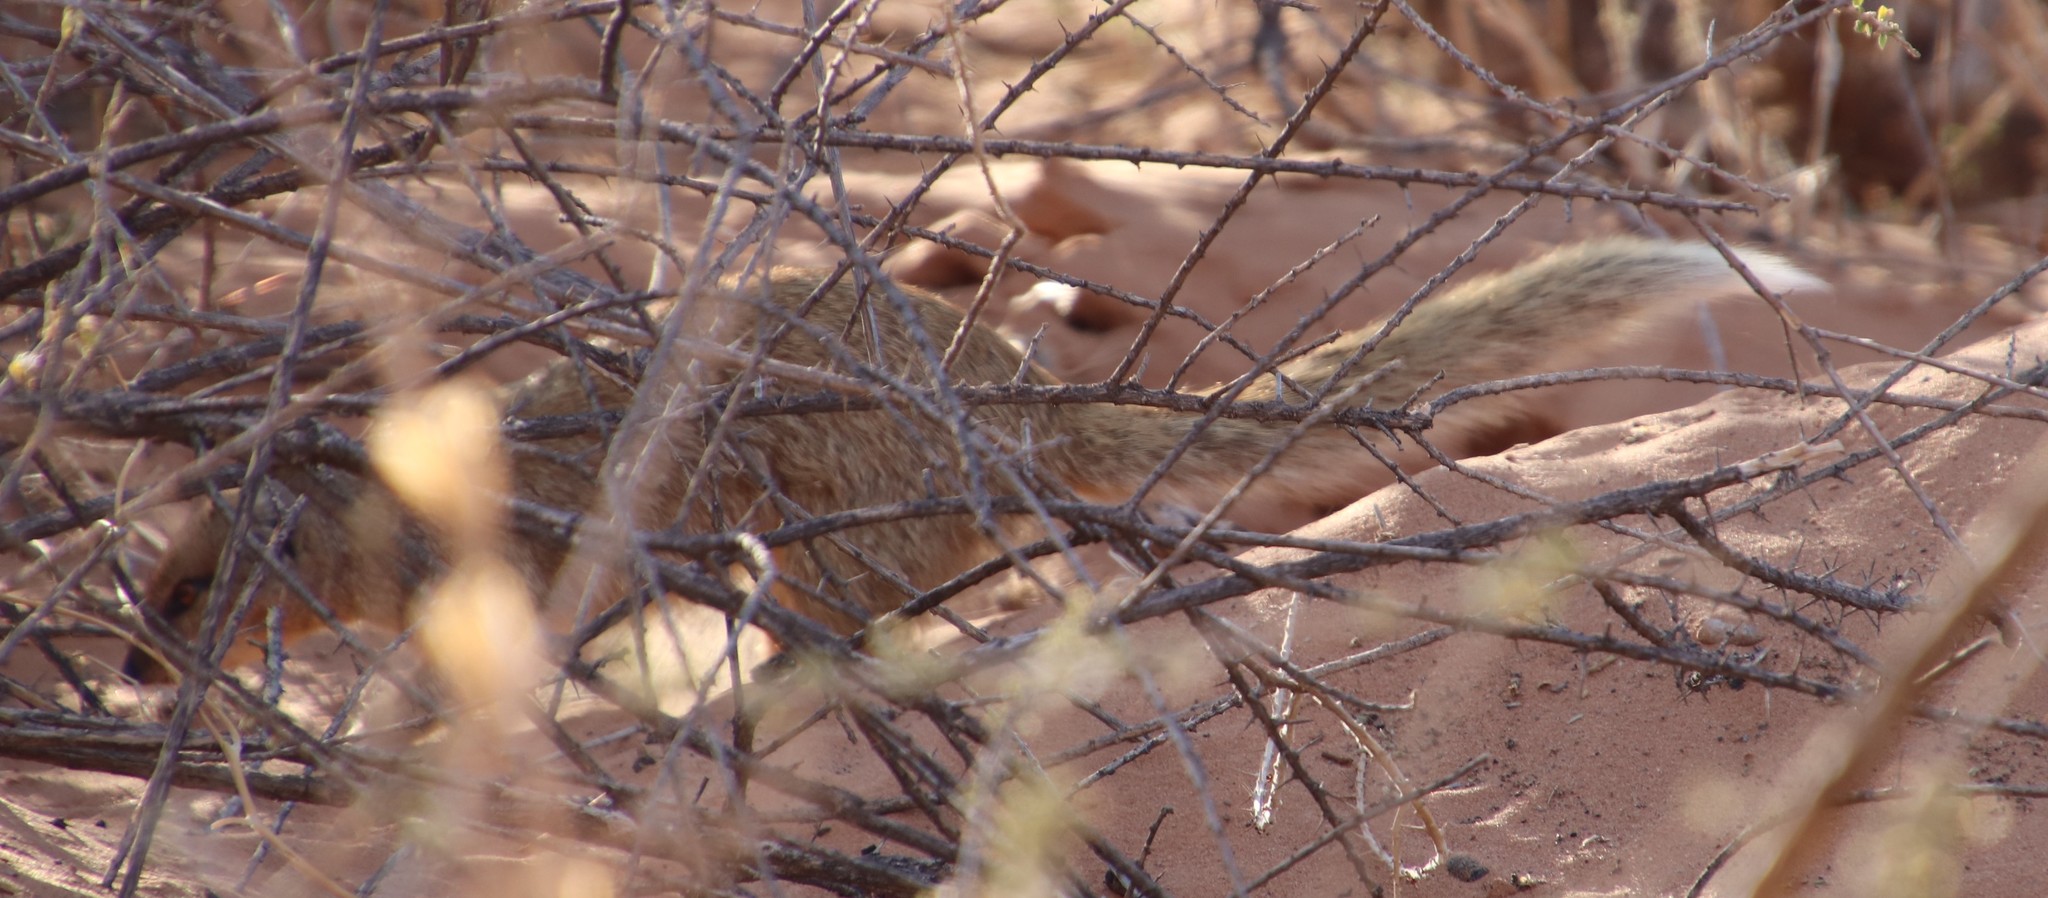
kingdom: Animalia
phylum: Chordata
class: Mammalia
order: Carnivora
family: Herpestidae
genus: Cynictis
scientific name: Cynictis penicillata
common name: Yellow mongoose
